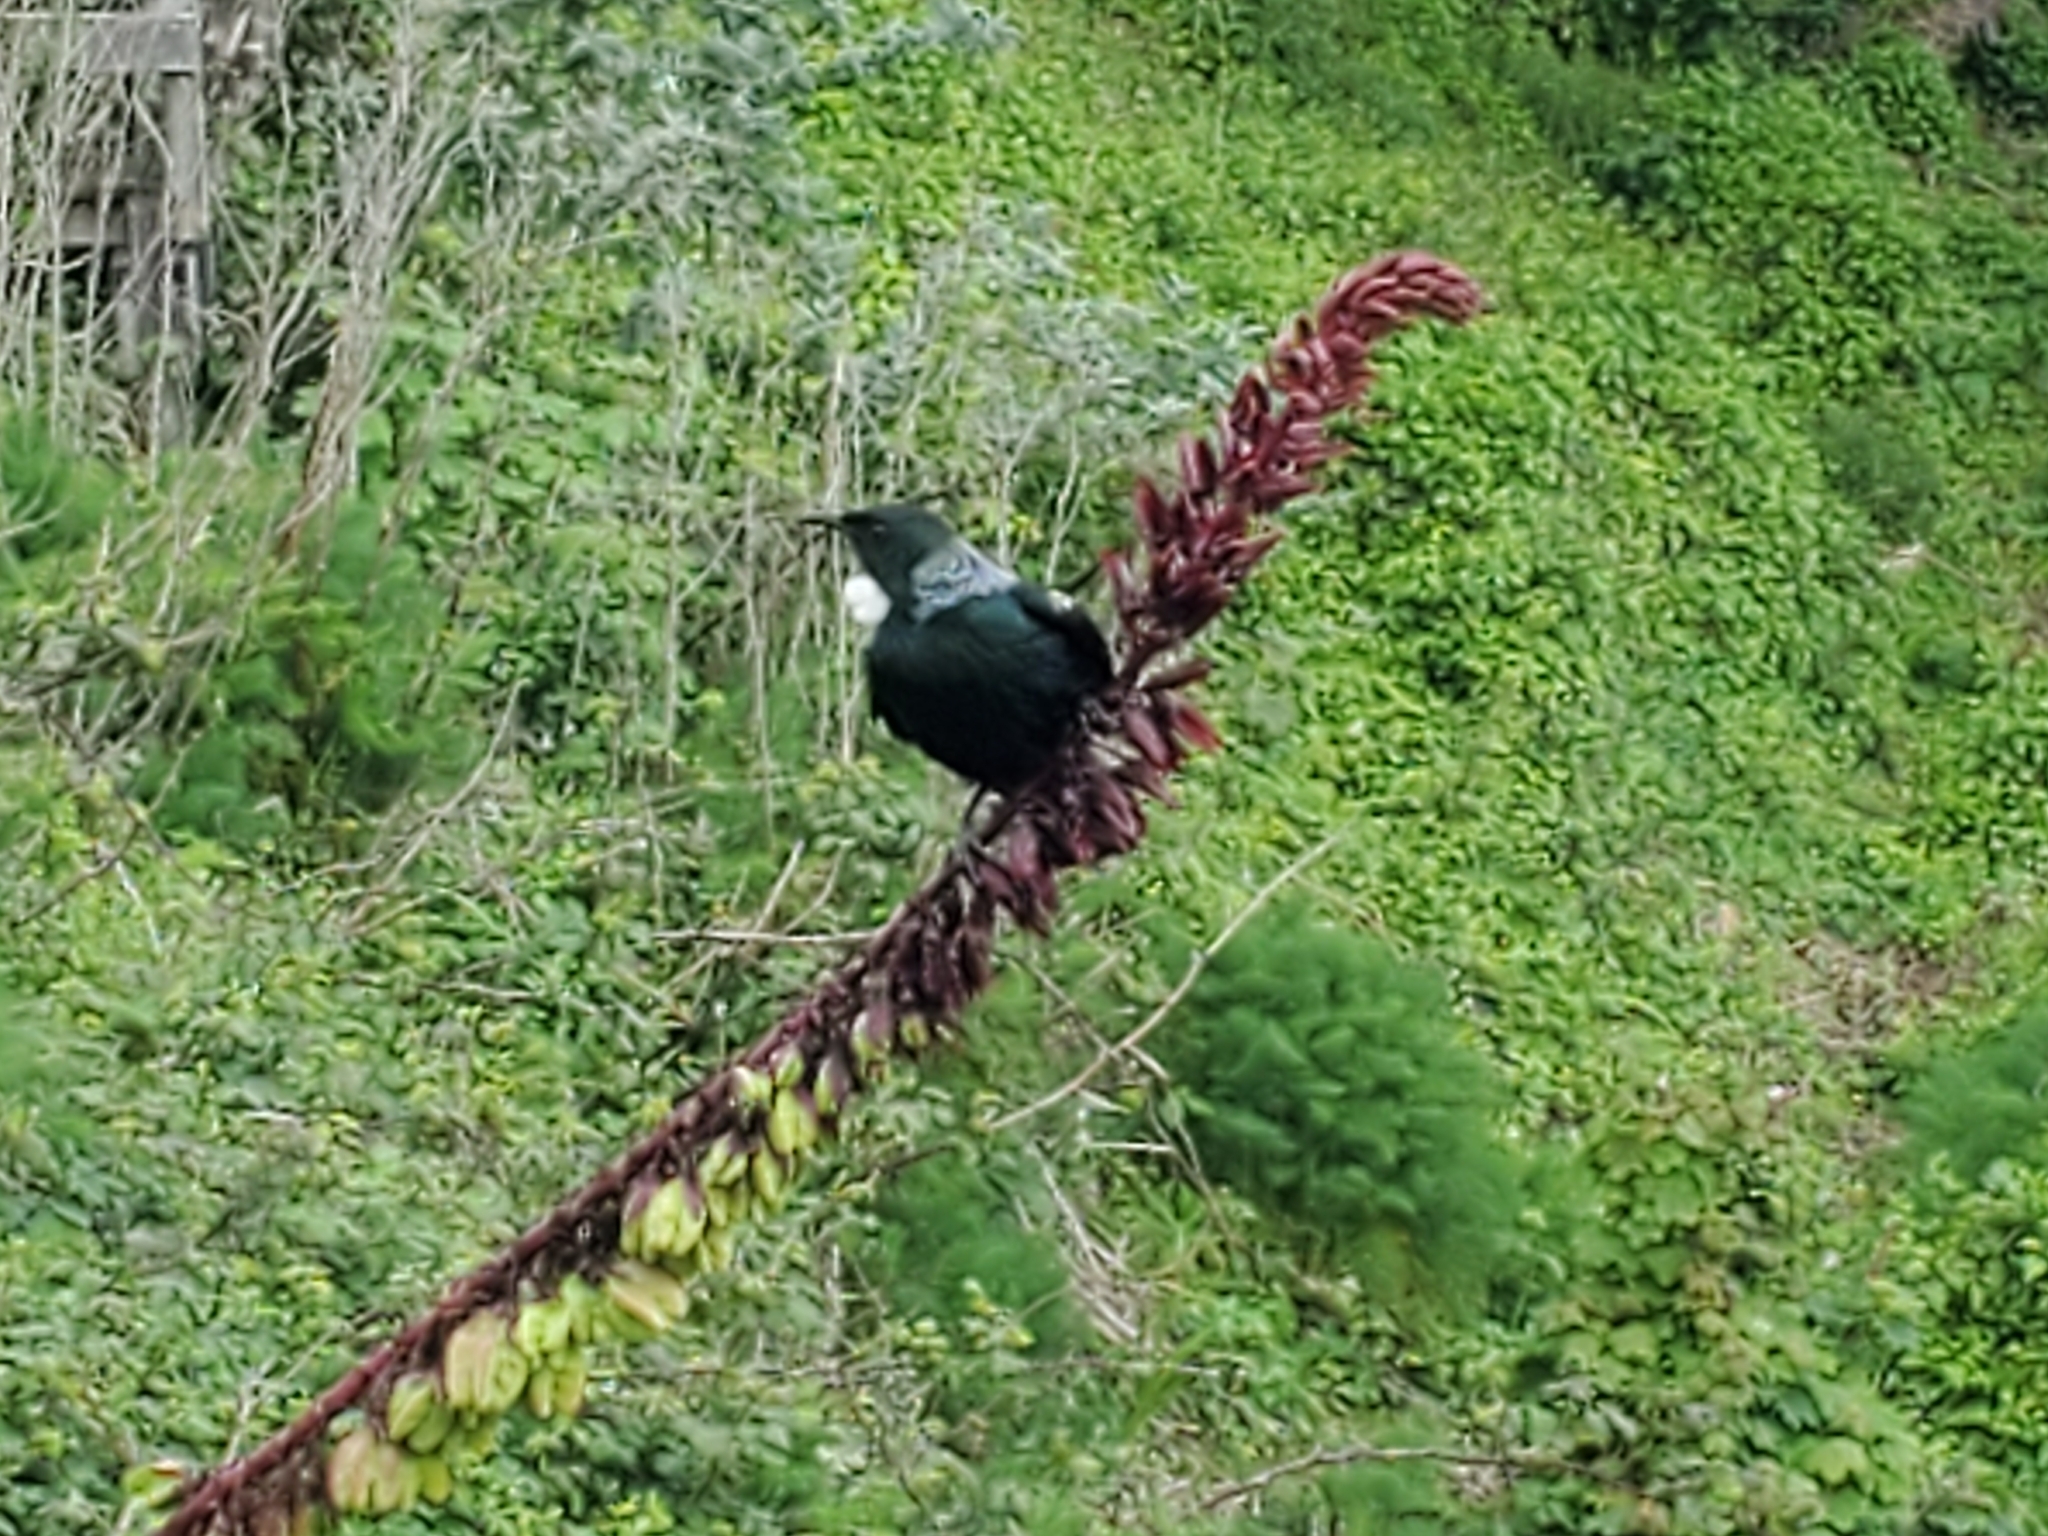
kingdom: Animalia
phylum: Chordata
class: Aves
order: Passeriformes
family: Meliphagidae
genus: Prosthemadera
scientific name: Prosthemadera novaeseelandiae
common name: Tui
